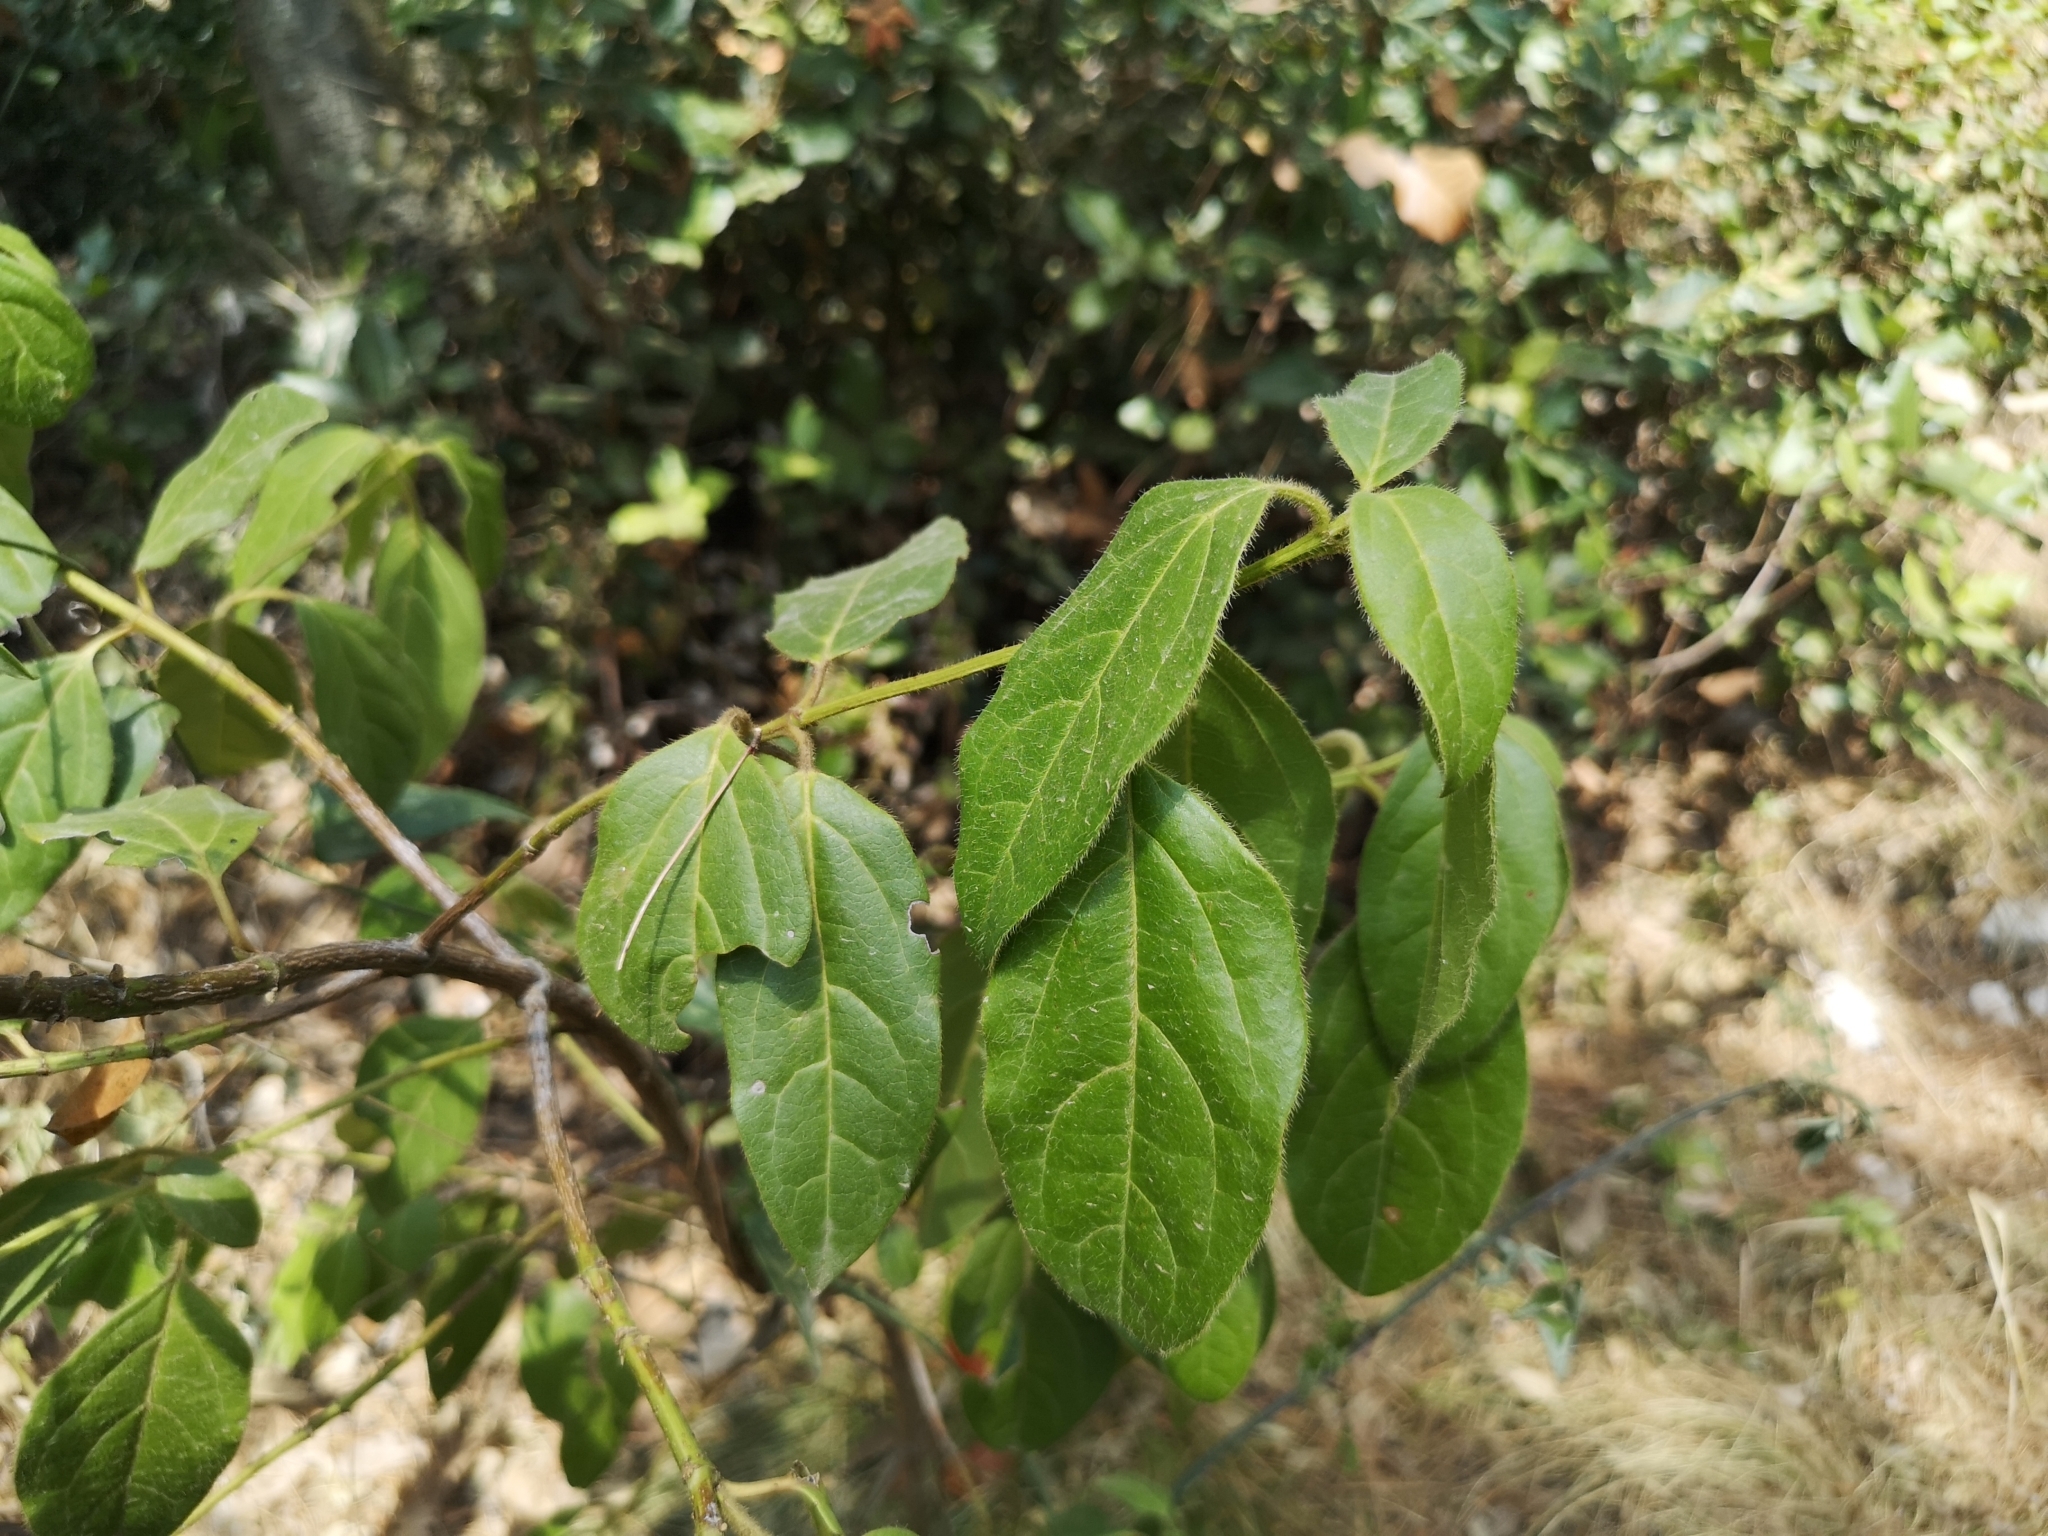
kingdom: Plantae
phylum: Tracheophyta
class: Magnoliopsida
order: Dipsacales
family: Viburnaceae
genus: Viburnum
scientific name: Viburnum tinus
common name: Laurustinus
